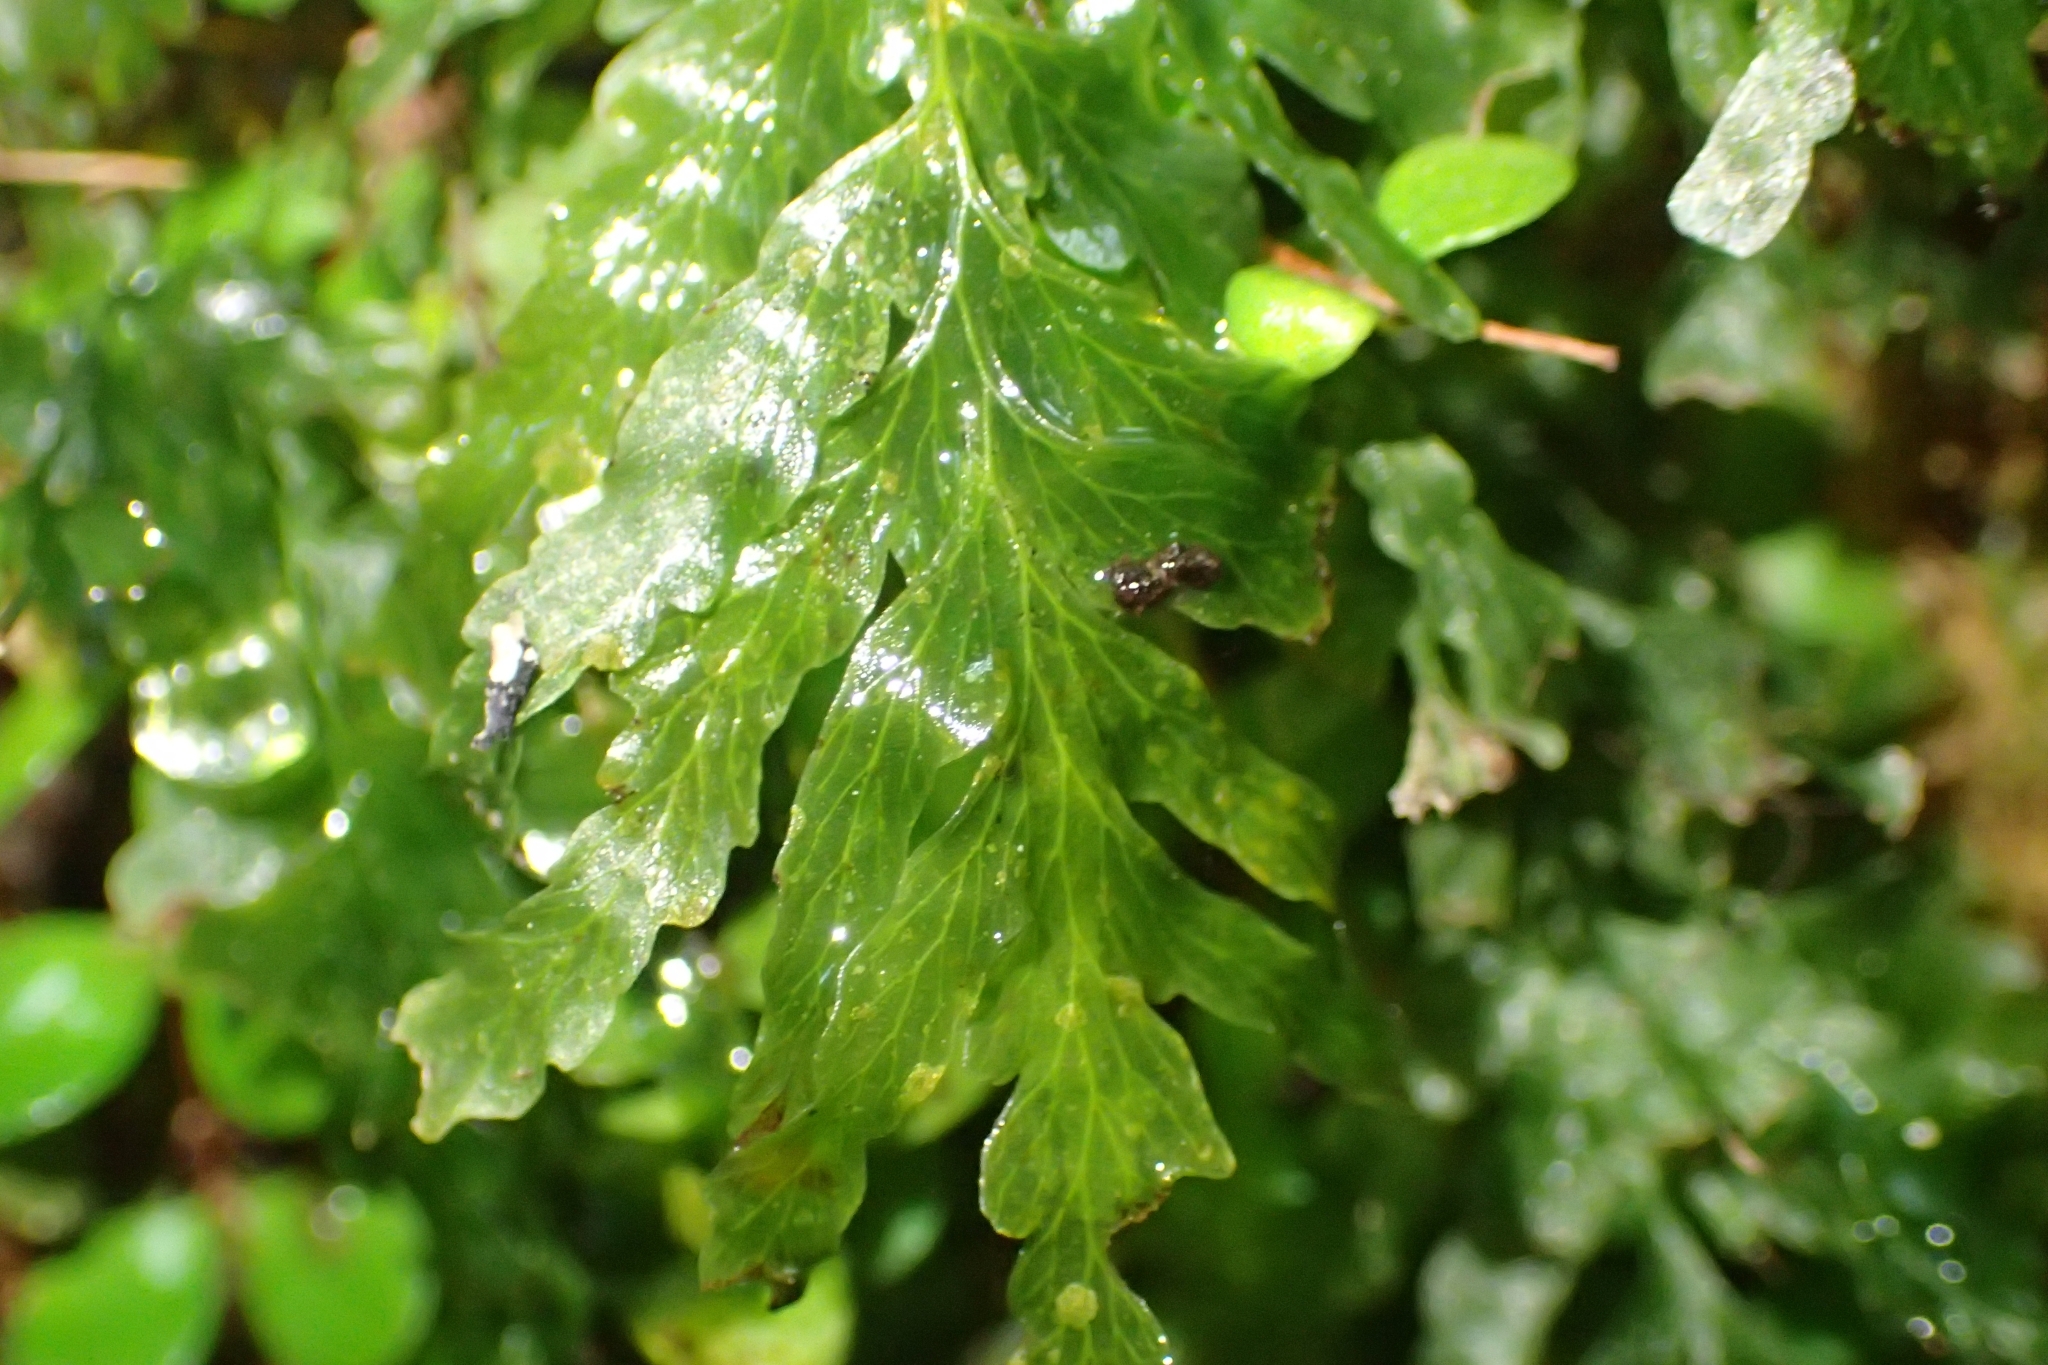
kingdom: Plantae
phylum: Tracheophyta
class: Polypodiopsida
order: Hymenophyllales
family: Hymenophyllaceae
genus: Polyphlebium
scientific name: Polyphlebium venosum
